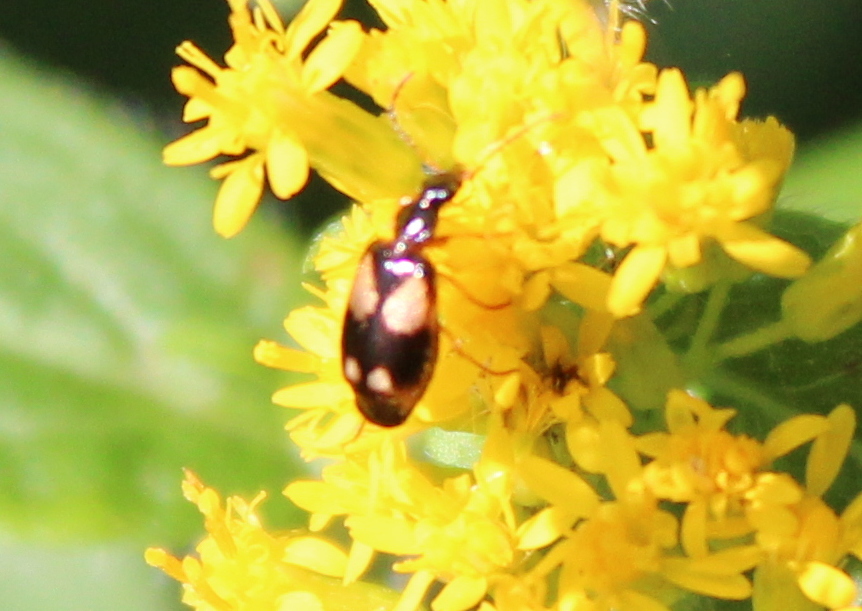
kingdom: Animalia
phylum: Arthropoda
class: Insecta
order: Coleoptera
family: Carabidae
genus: Lebia
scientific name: Lebia ornata
